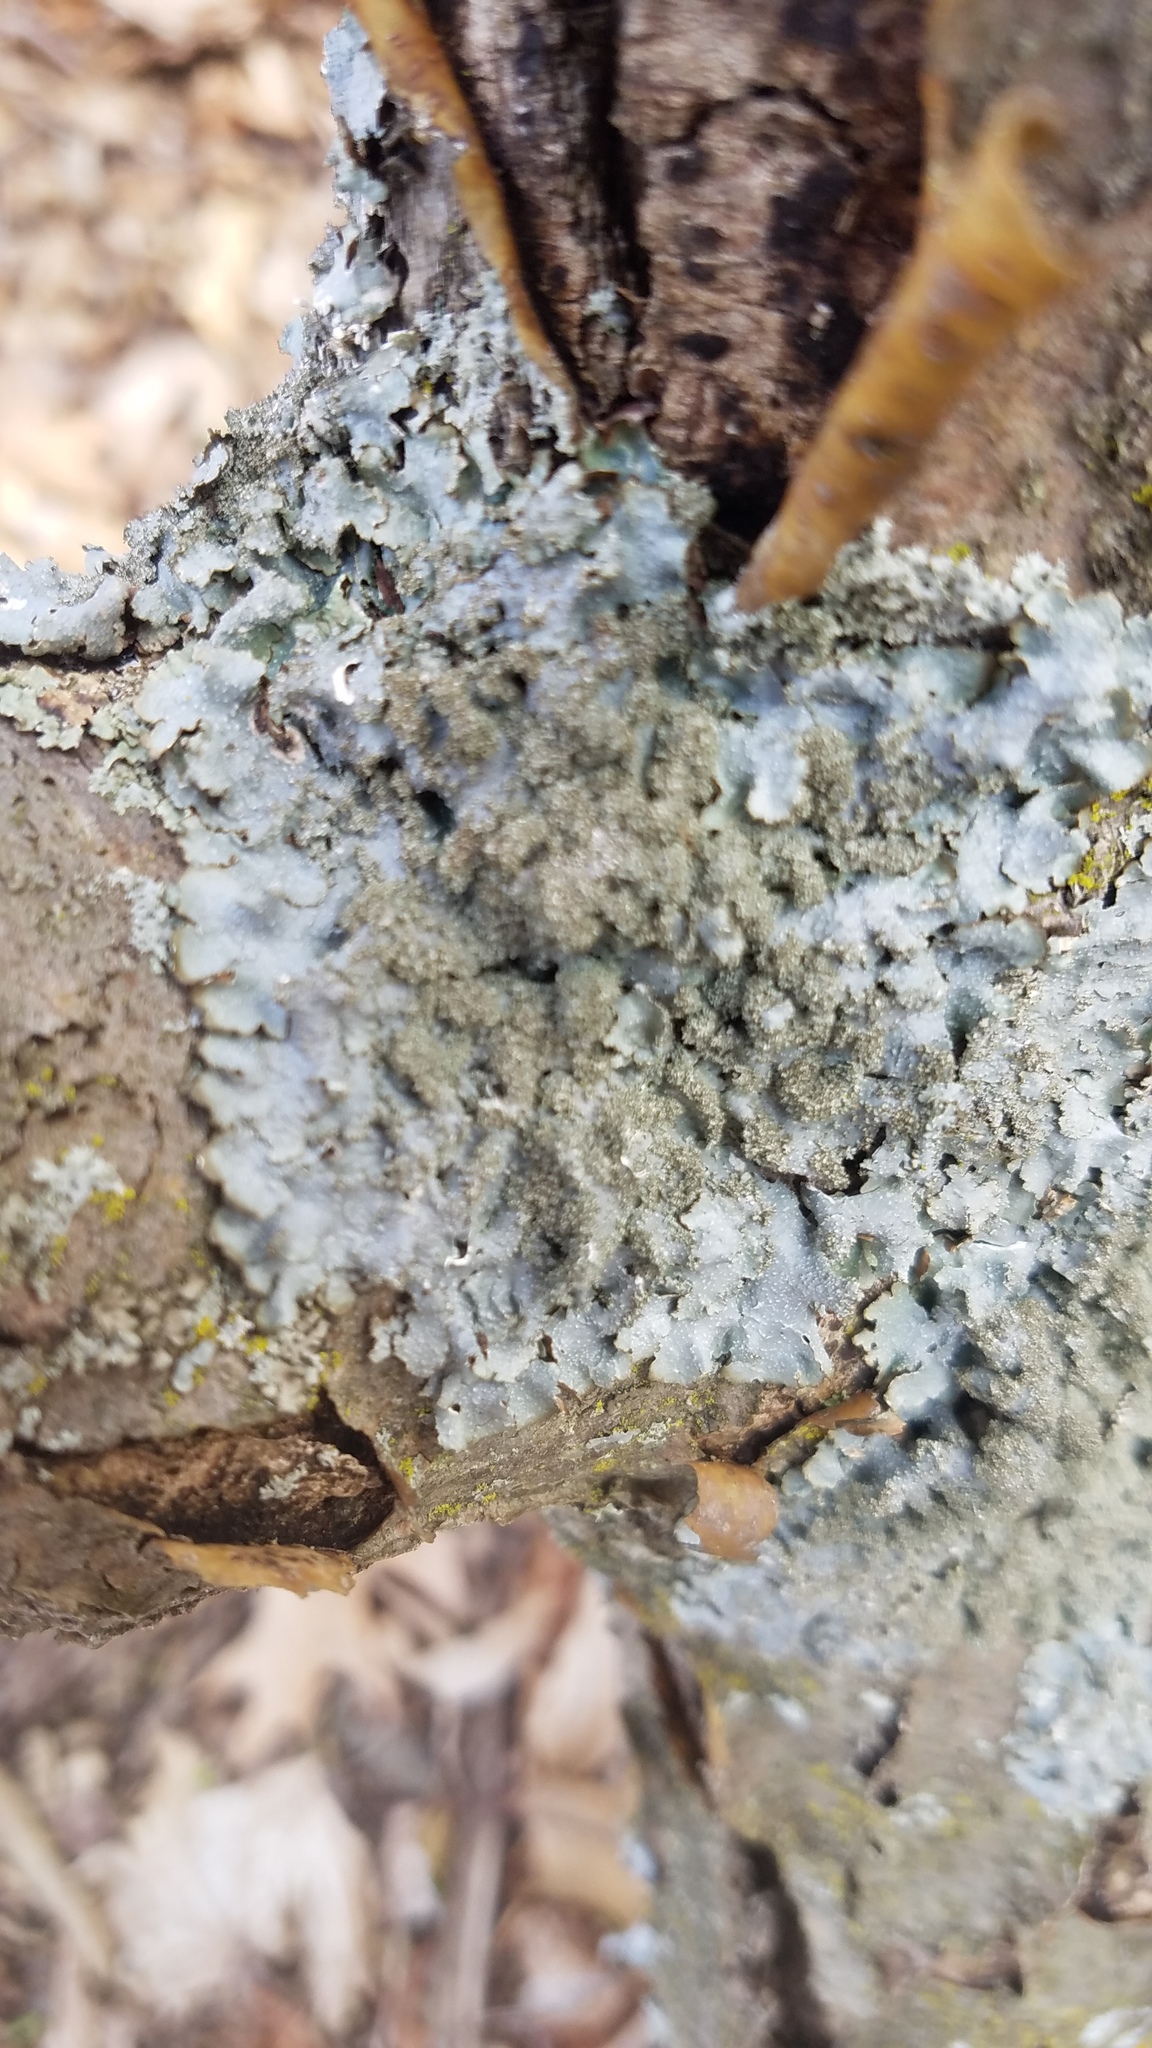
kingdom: Fungi
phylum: Ascomycota
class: Lecanoromycetes
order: Lecanorales
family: Parmeliaceae
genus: Punctelia
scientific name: Punctelia rudecta
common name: Rough speckled shield lichen
